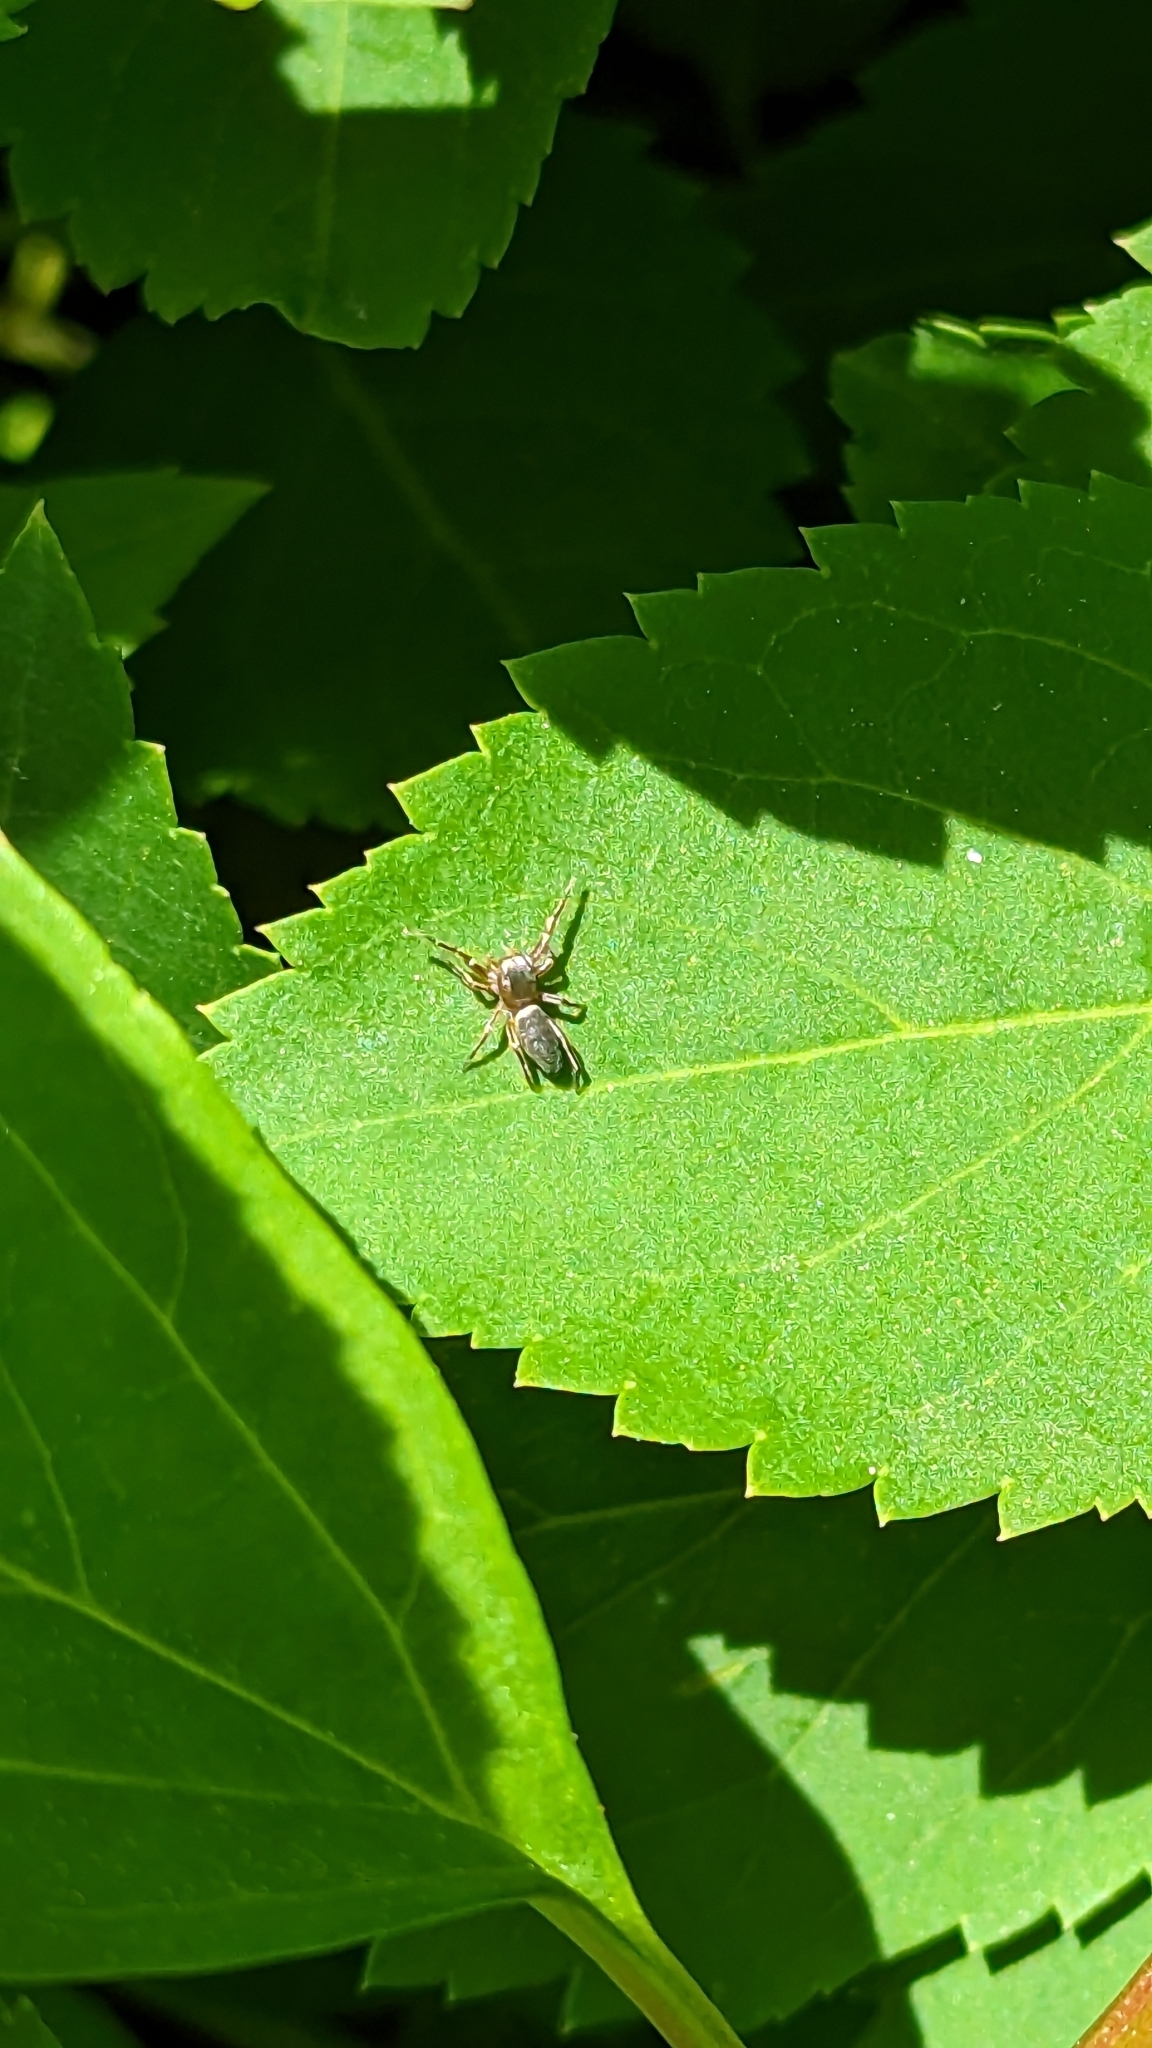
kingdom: Animalia
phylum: Arthropoda
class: Arachnida
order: Araneae
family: Salticidae
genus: Tutelina
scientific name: Tutelina elegans
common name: Thin-spined jumping spider
